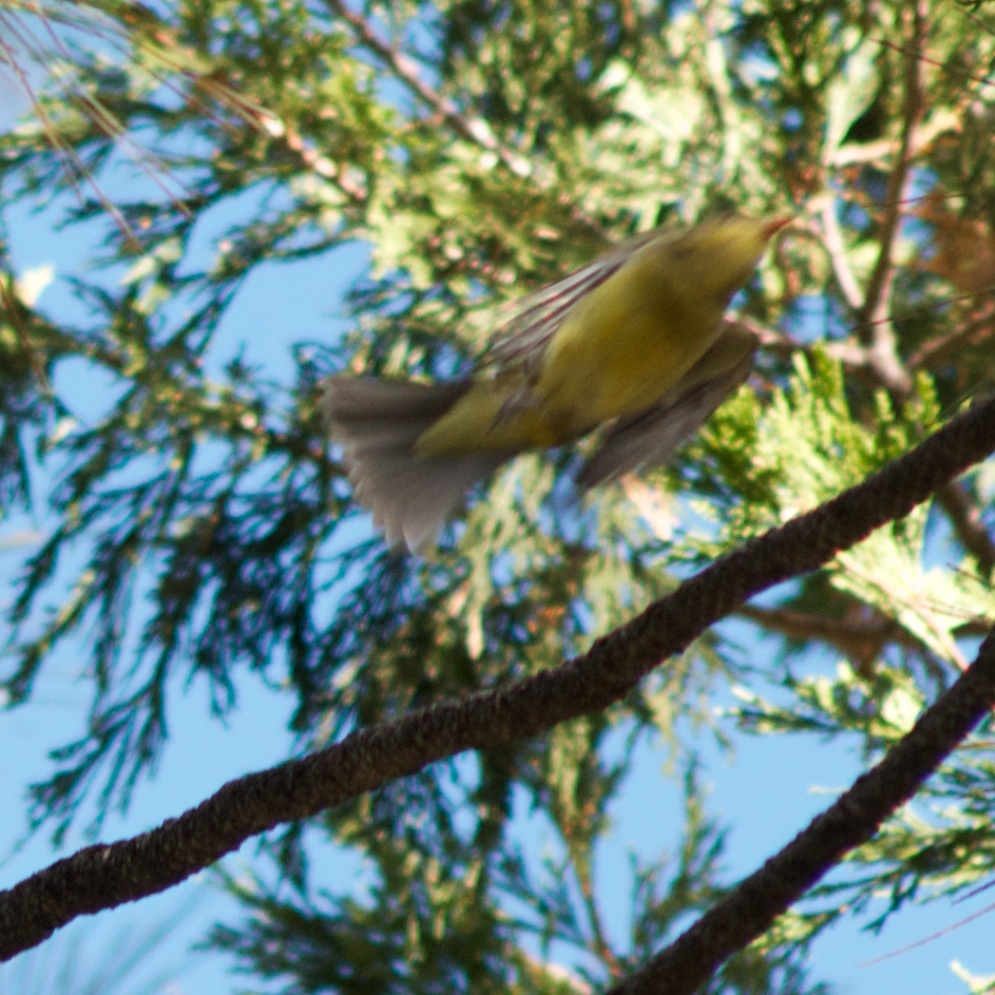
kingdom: Animalia
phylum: Chordata
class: Aves
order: Passeriformes
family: Cardinalidae
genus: Piranga
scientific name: Piranga ludoviciana
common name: Western tanager
